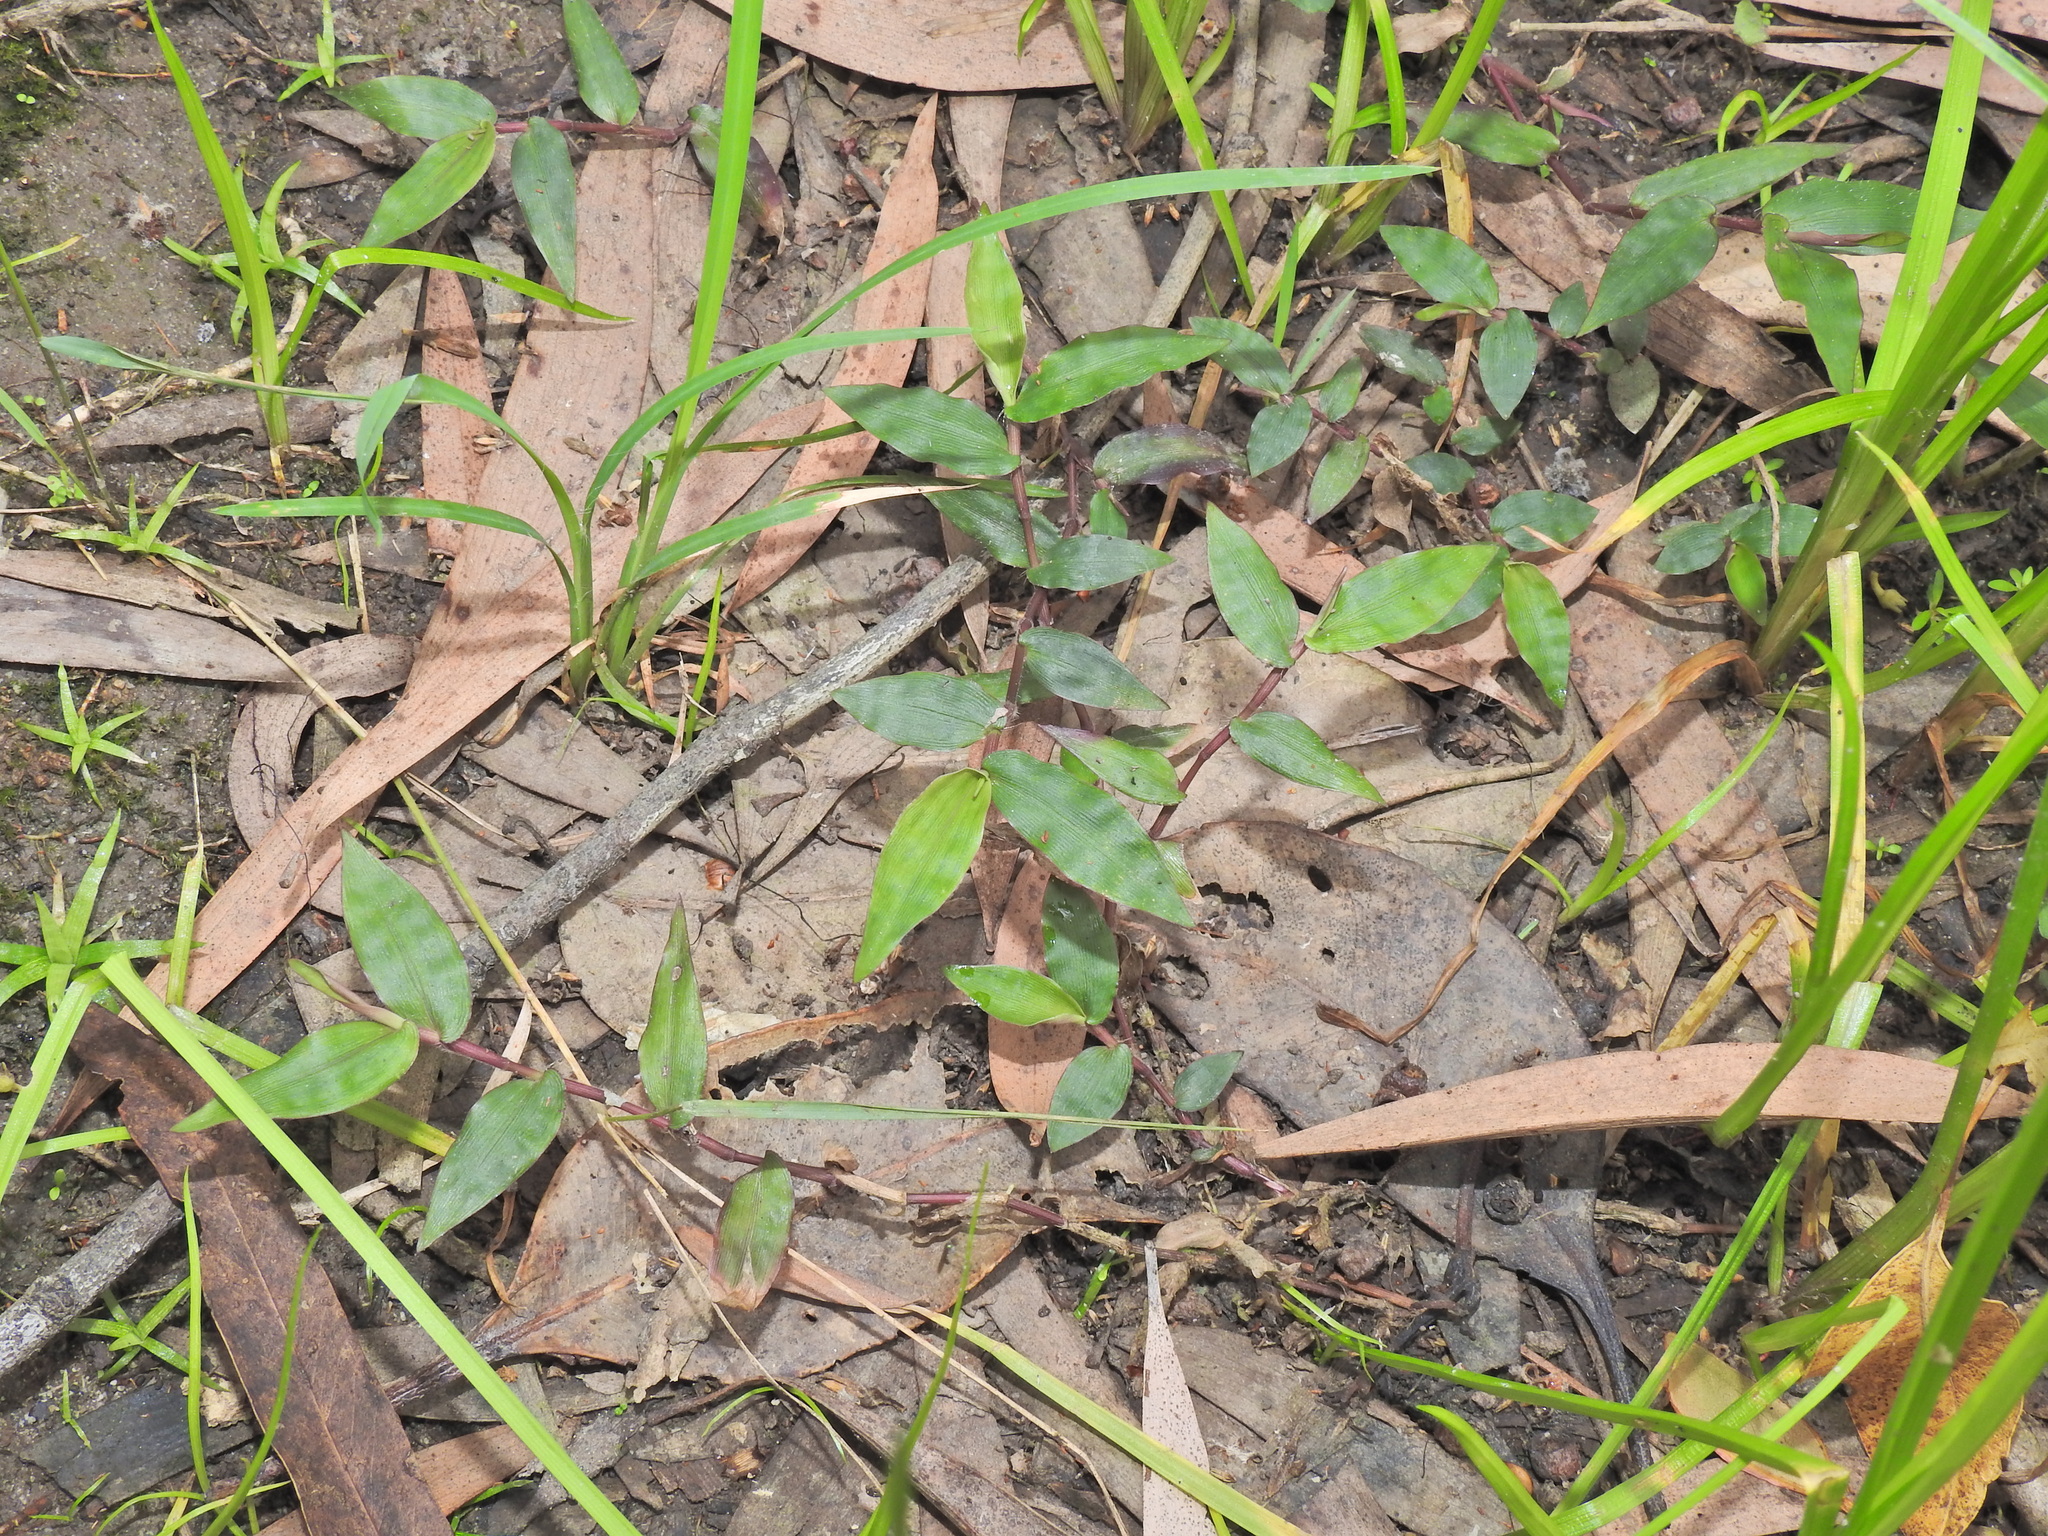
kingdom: Plantae
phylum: Tracheophyta
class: Liliopsida
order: Poales
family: Poaceae
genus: Oplismenus
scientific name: Oplismenus hirtellus
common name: Basketgrass
